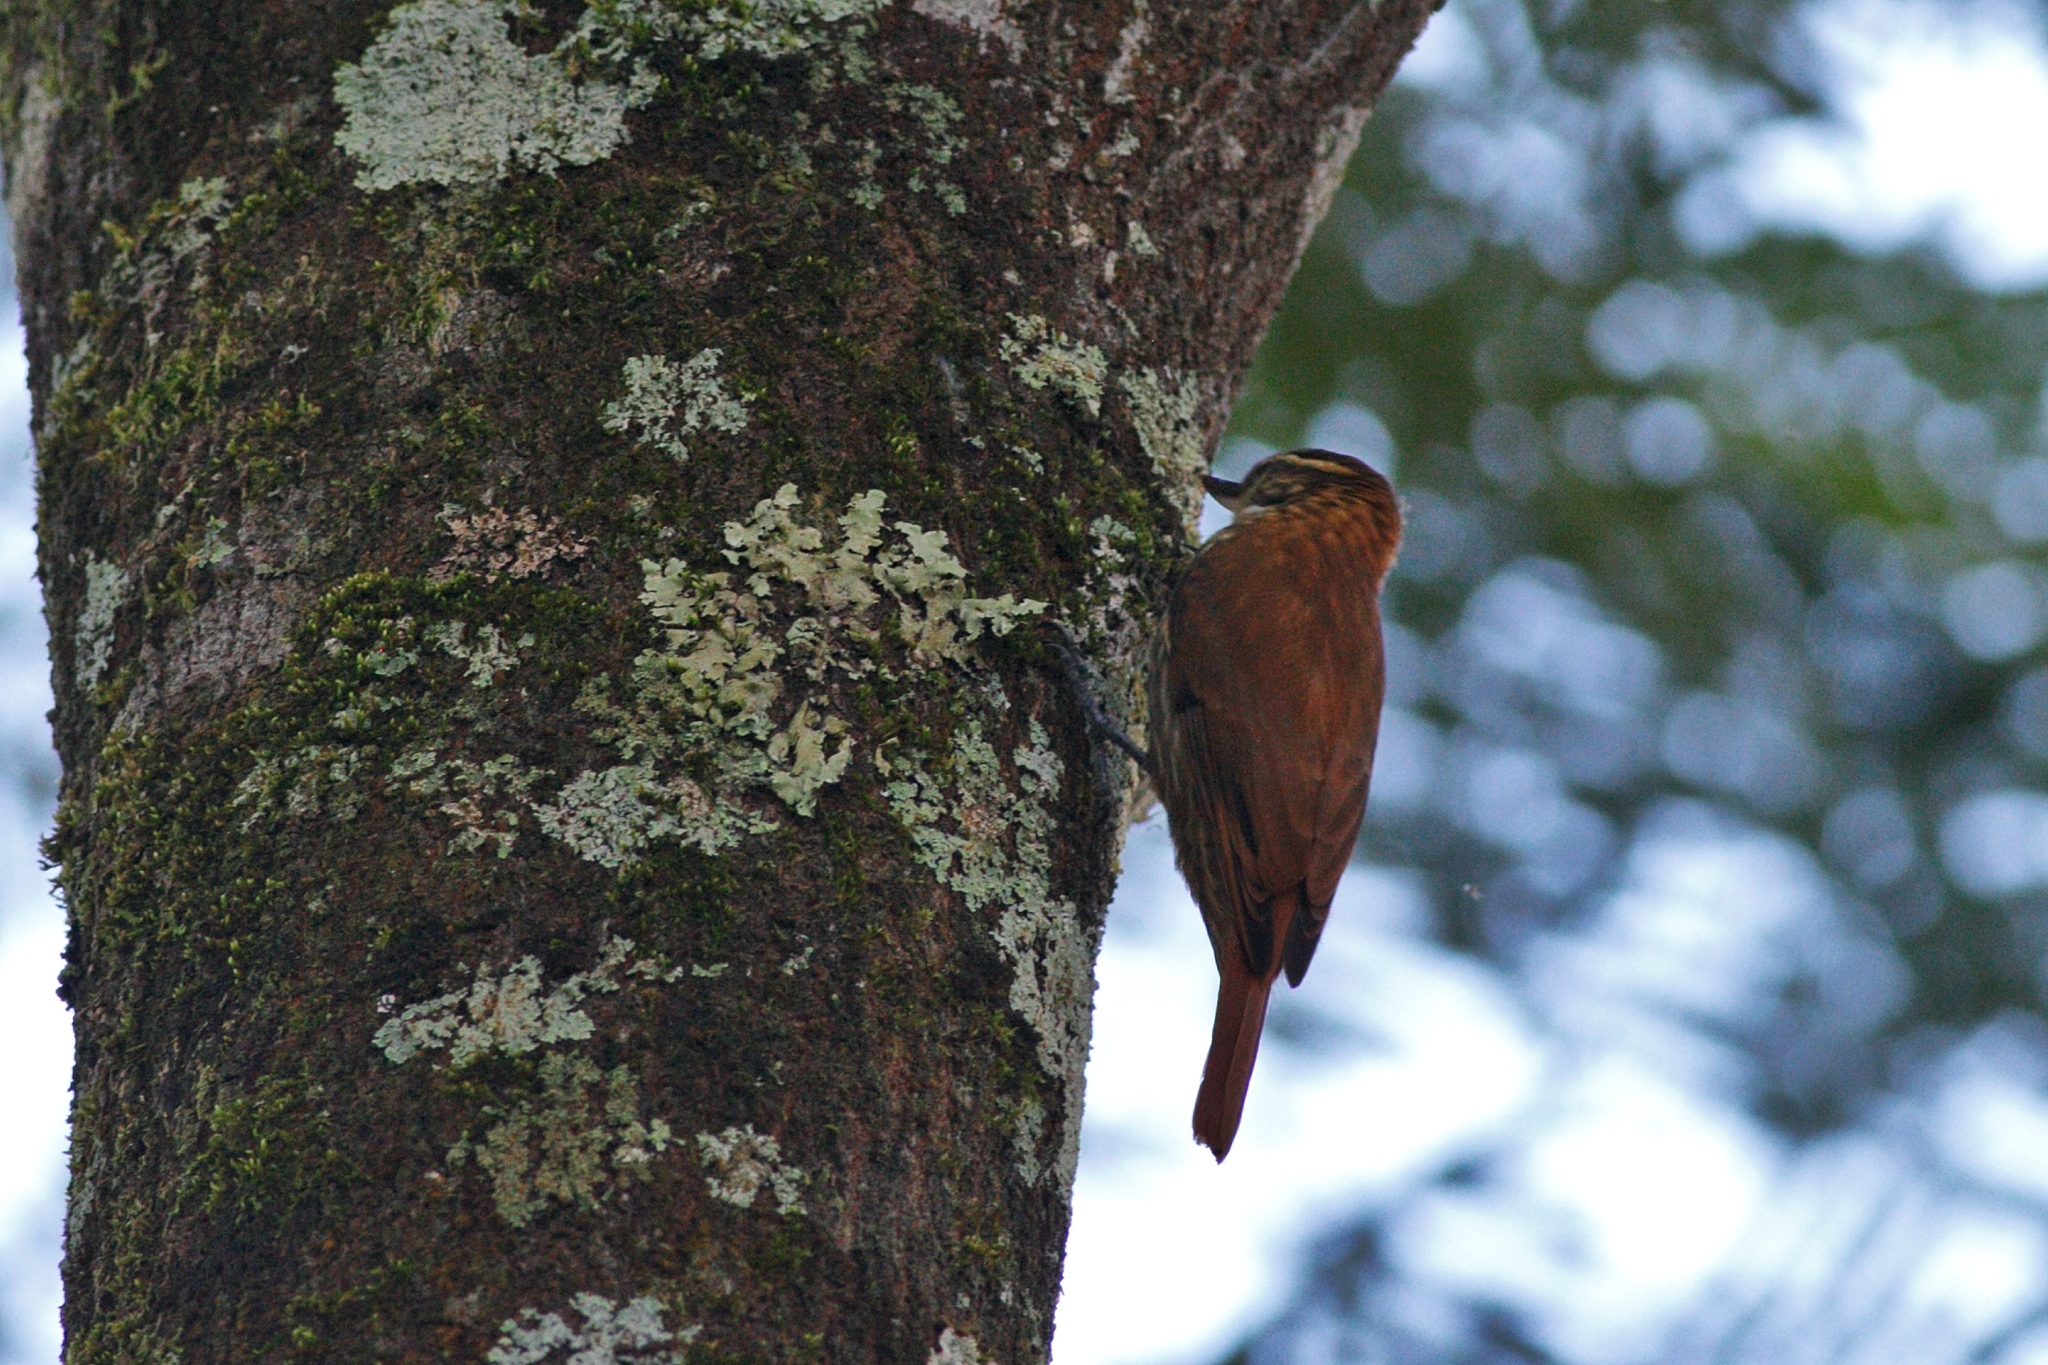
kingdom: Animalia
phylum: Chordata
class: Aves
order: Passeriformes
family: Furnariidae
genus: Xenops
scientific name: Xenops rutilans
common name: Streaked xenops
